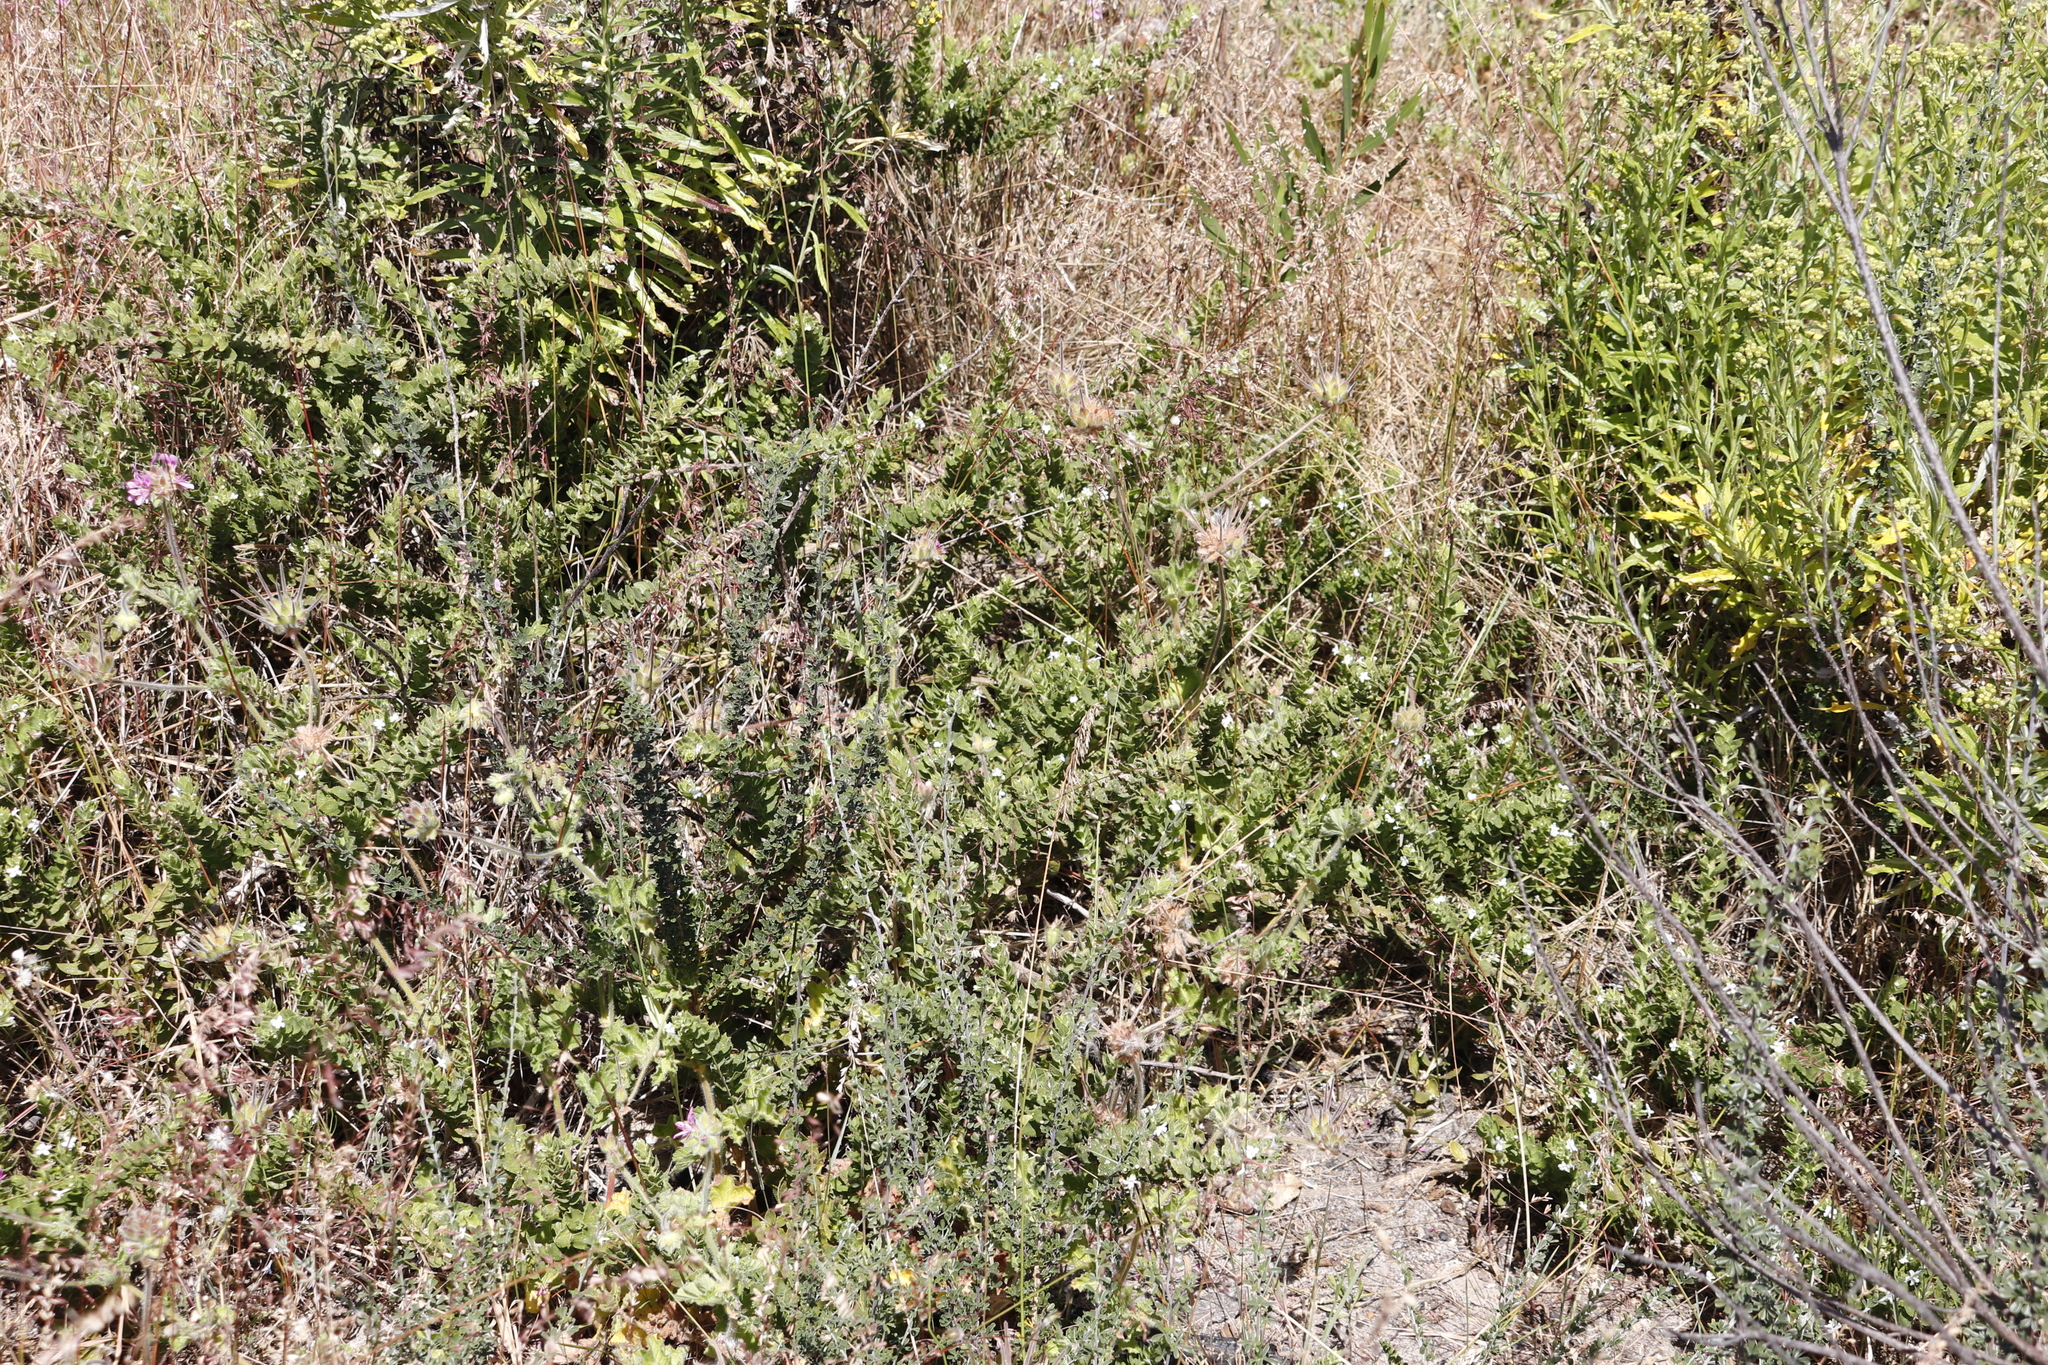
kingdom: Plantae
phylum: Tracheophyta
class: Magnoliopsida
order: Lamiales
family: Scrophulariaceae
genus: Oftia
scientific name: Oftia africana
